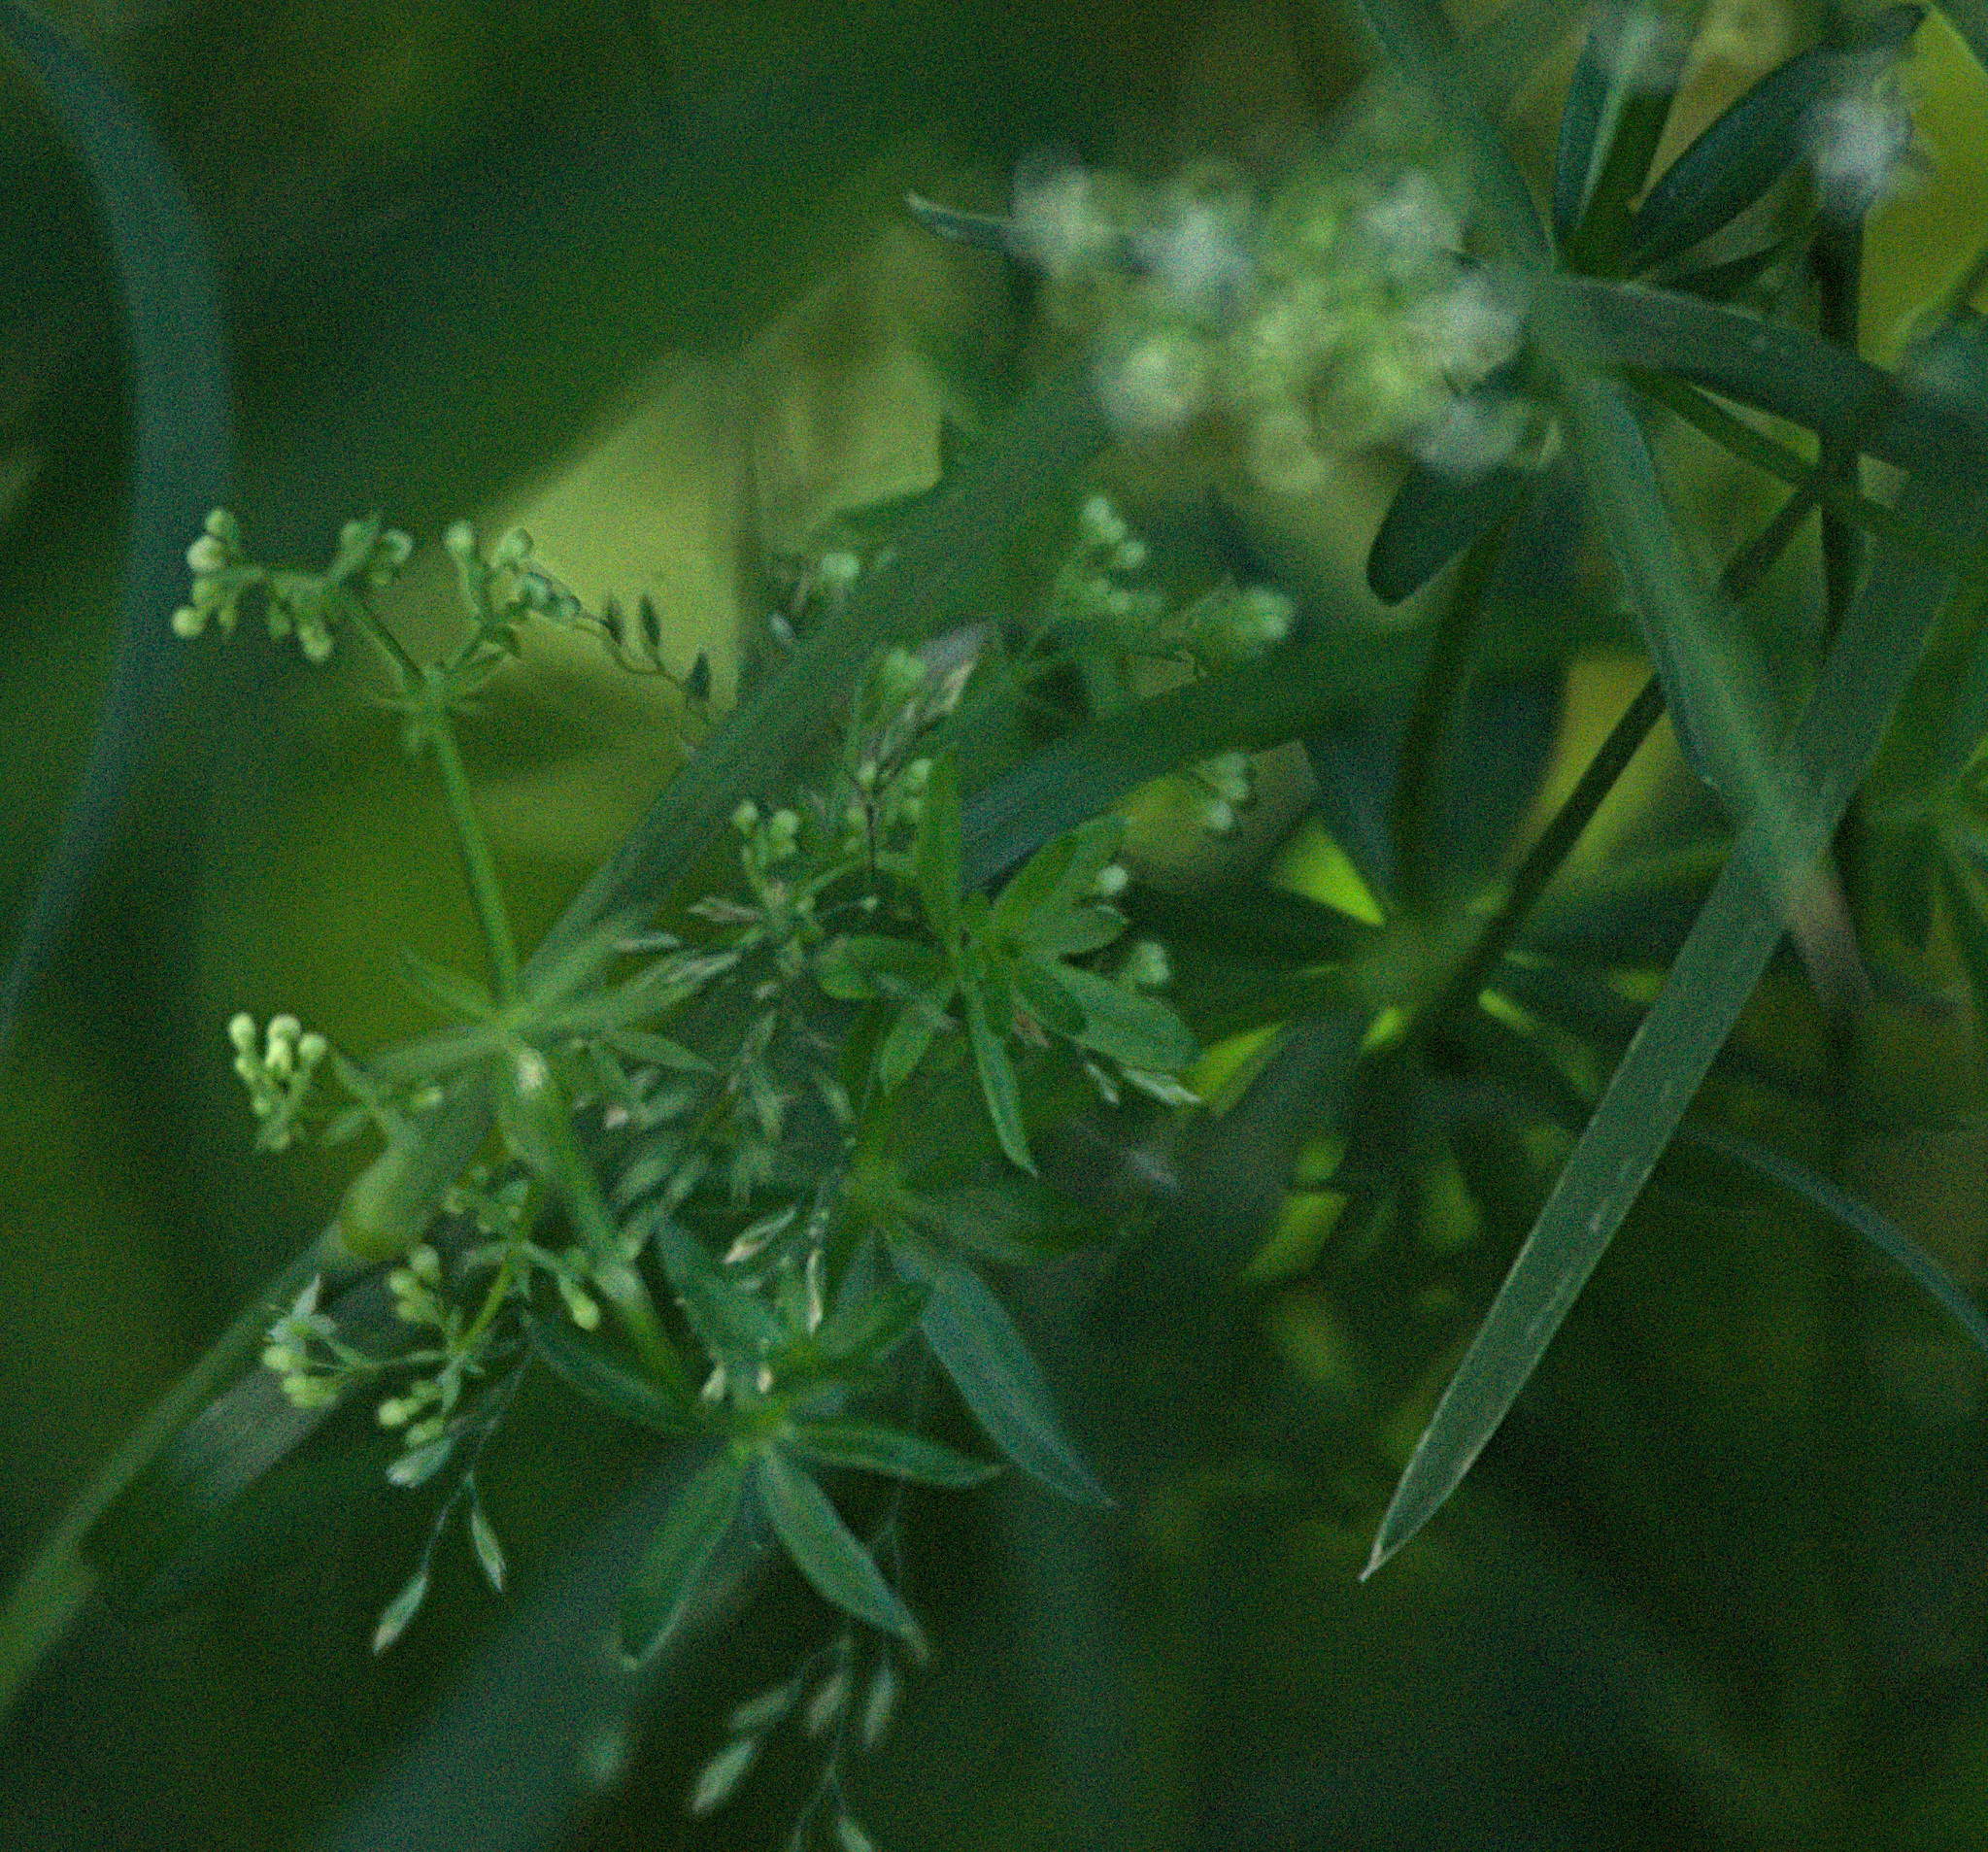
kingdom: Plantae
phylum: Tracheophyta
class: Magnoliopsida
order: Gentianales
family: Rubiaceae
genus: Galium
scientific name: Galium mollugo
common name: Hedge bedstraw
